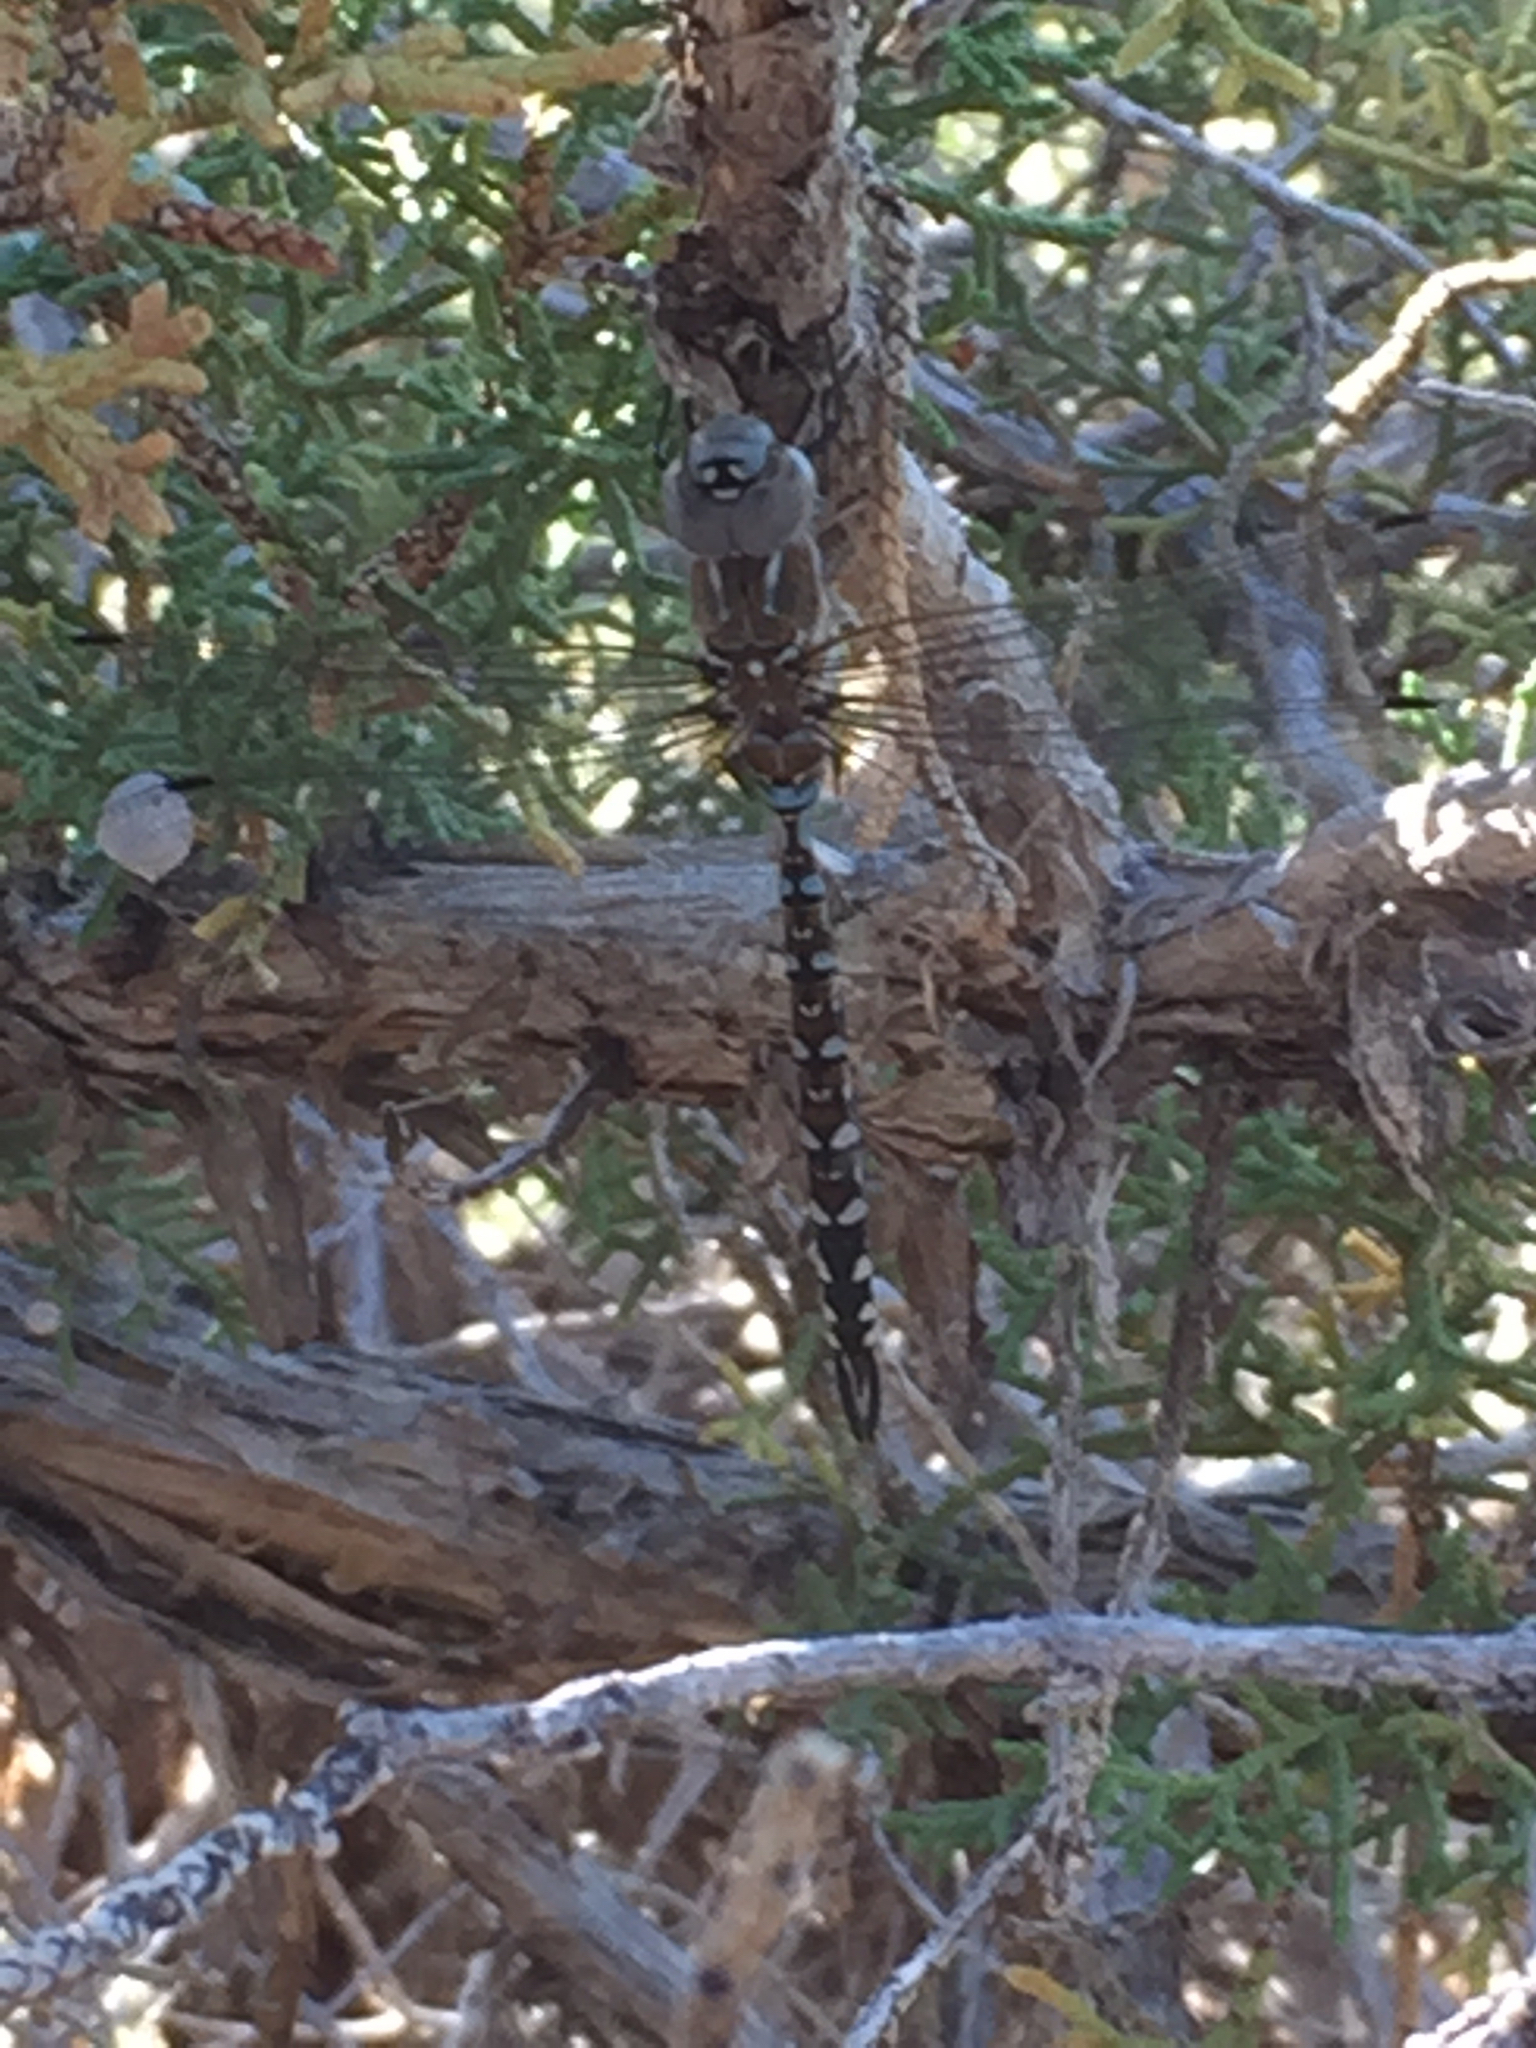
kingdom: Animalia
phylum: Arthropoda
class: Insecta
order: Odonata
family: Aeshnidae
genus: Rhionaeschna
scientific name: Rhionaeschna multicolor
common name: Blue-eyed darner
